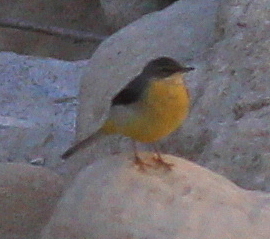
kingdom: Animalia
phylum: Chordata
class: Aves
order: Passeriformes
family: Motacillidae
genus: Motacilla
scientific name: Motacilla cinerea
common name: Grey wagtail
